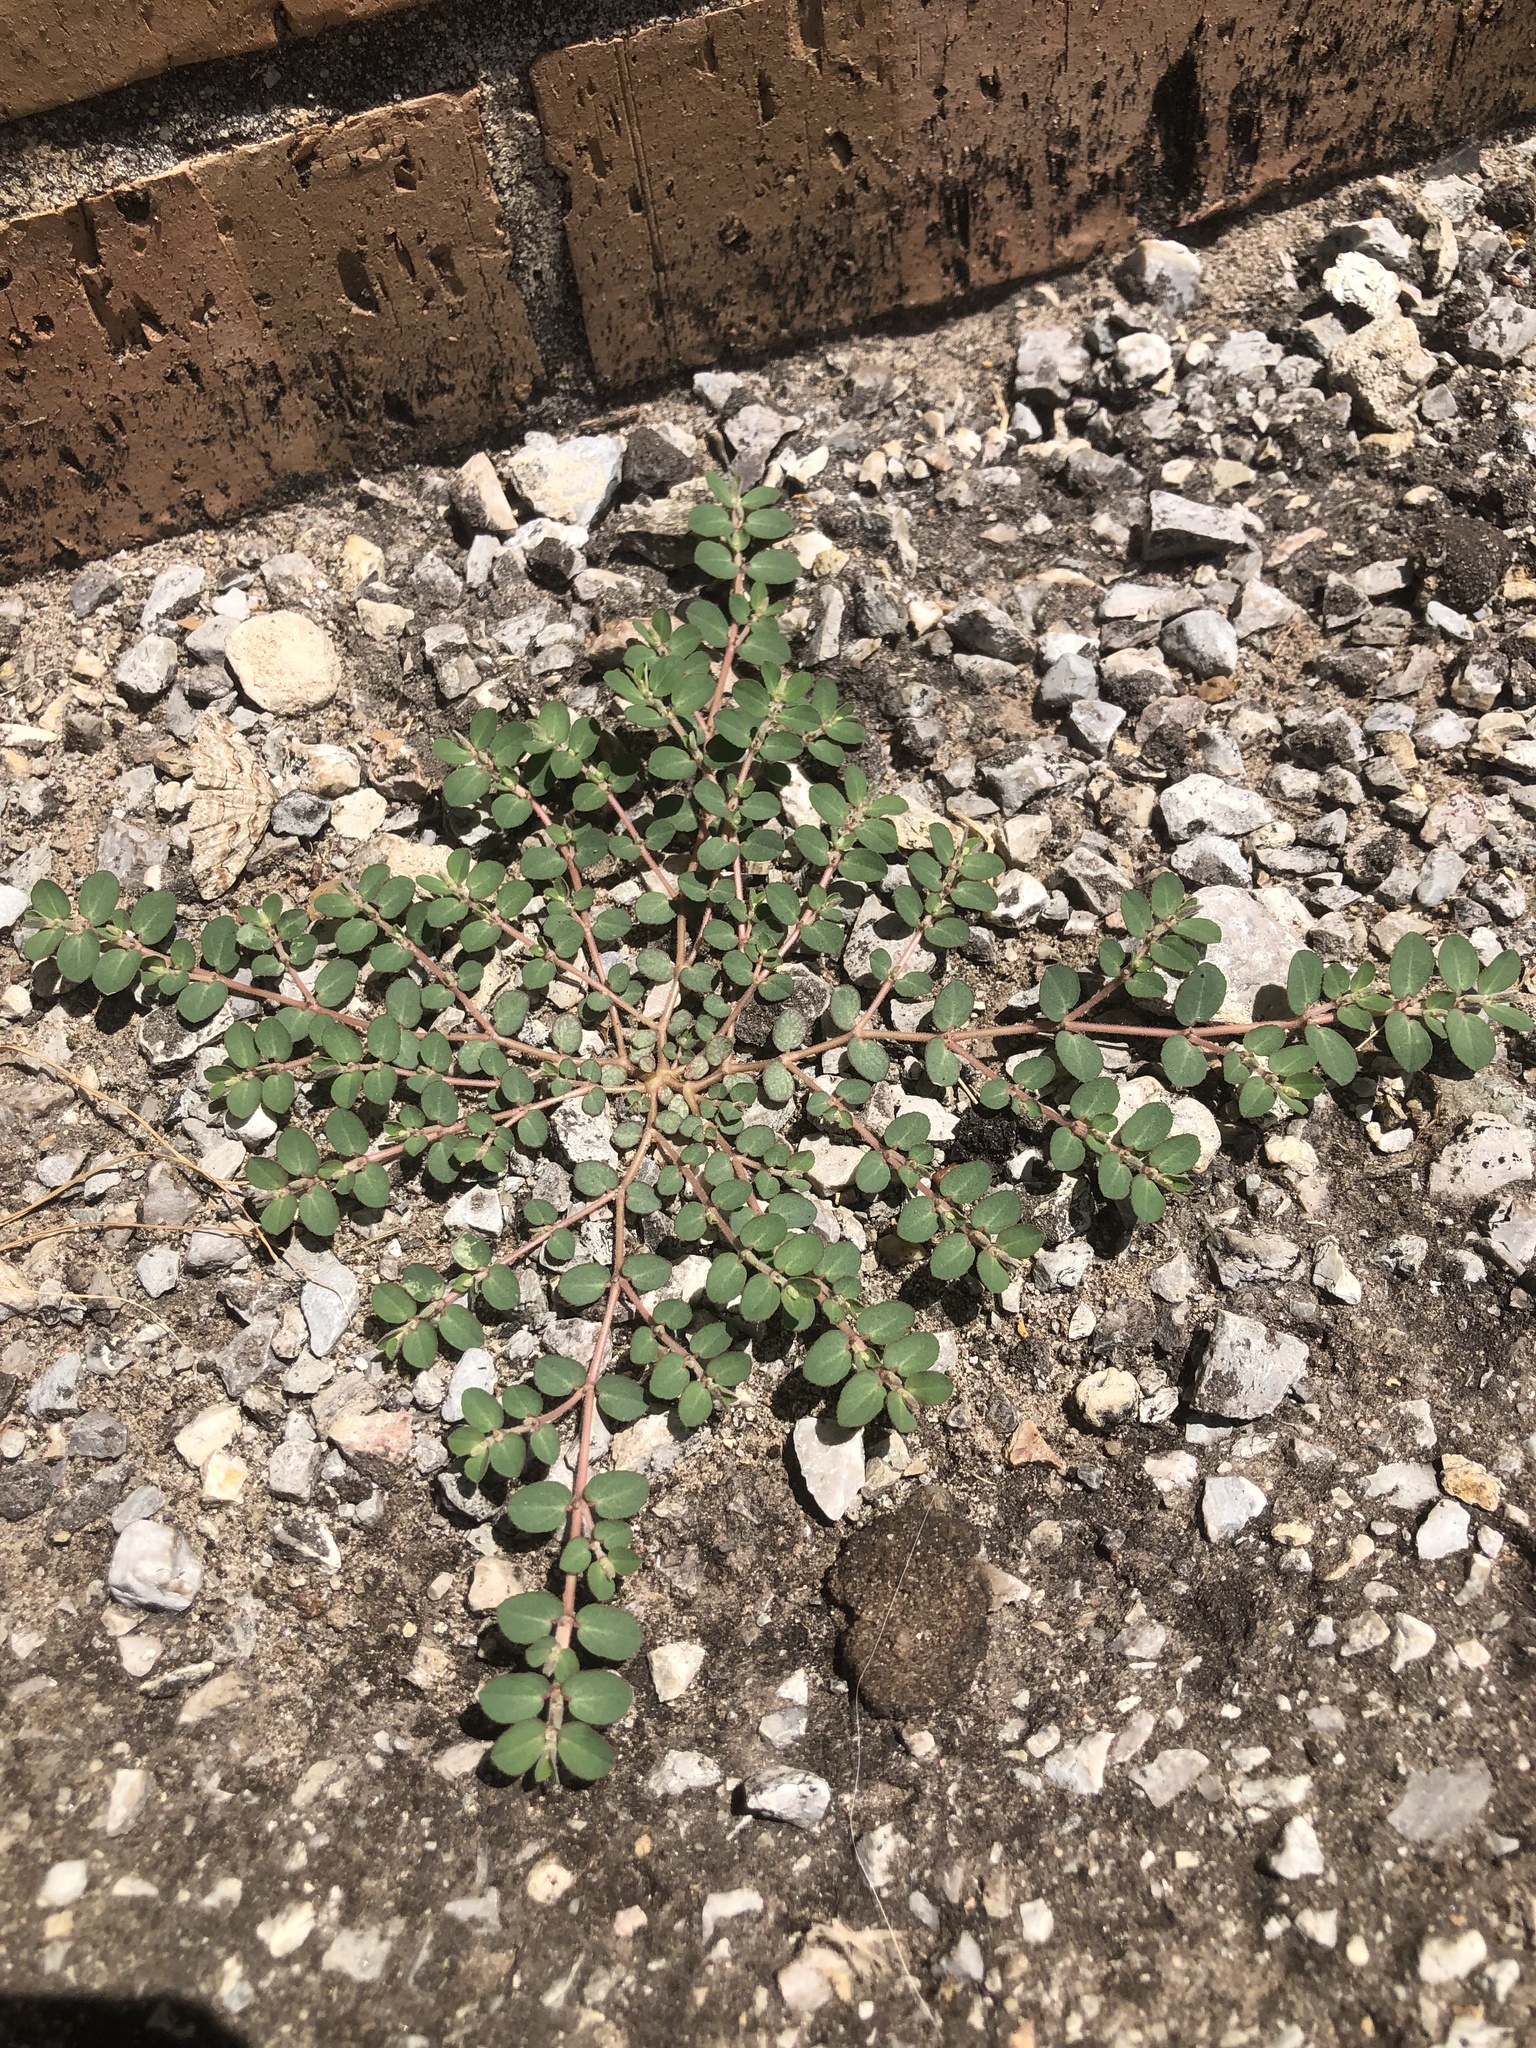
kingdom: Plantae
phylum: Tracheophyta
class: Magnoliopsida
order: Malpighiales
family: Euphorbiaceae
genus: Euphorbia
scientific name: Euphorbia prostrata
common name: Prostrate sandmat
